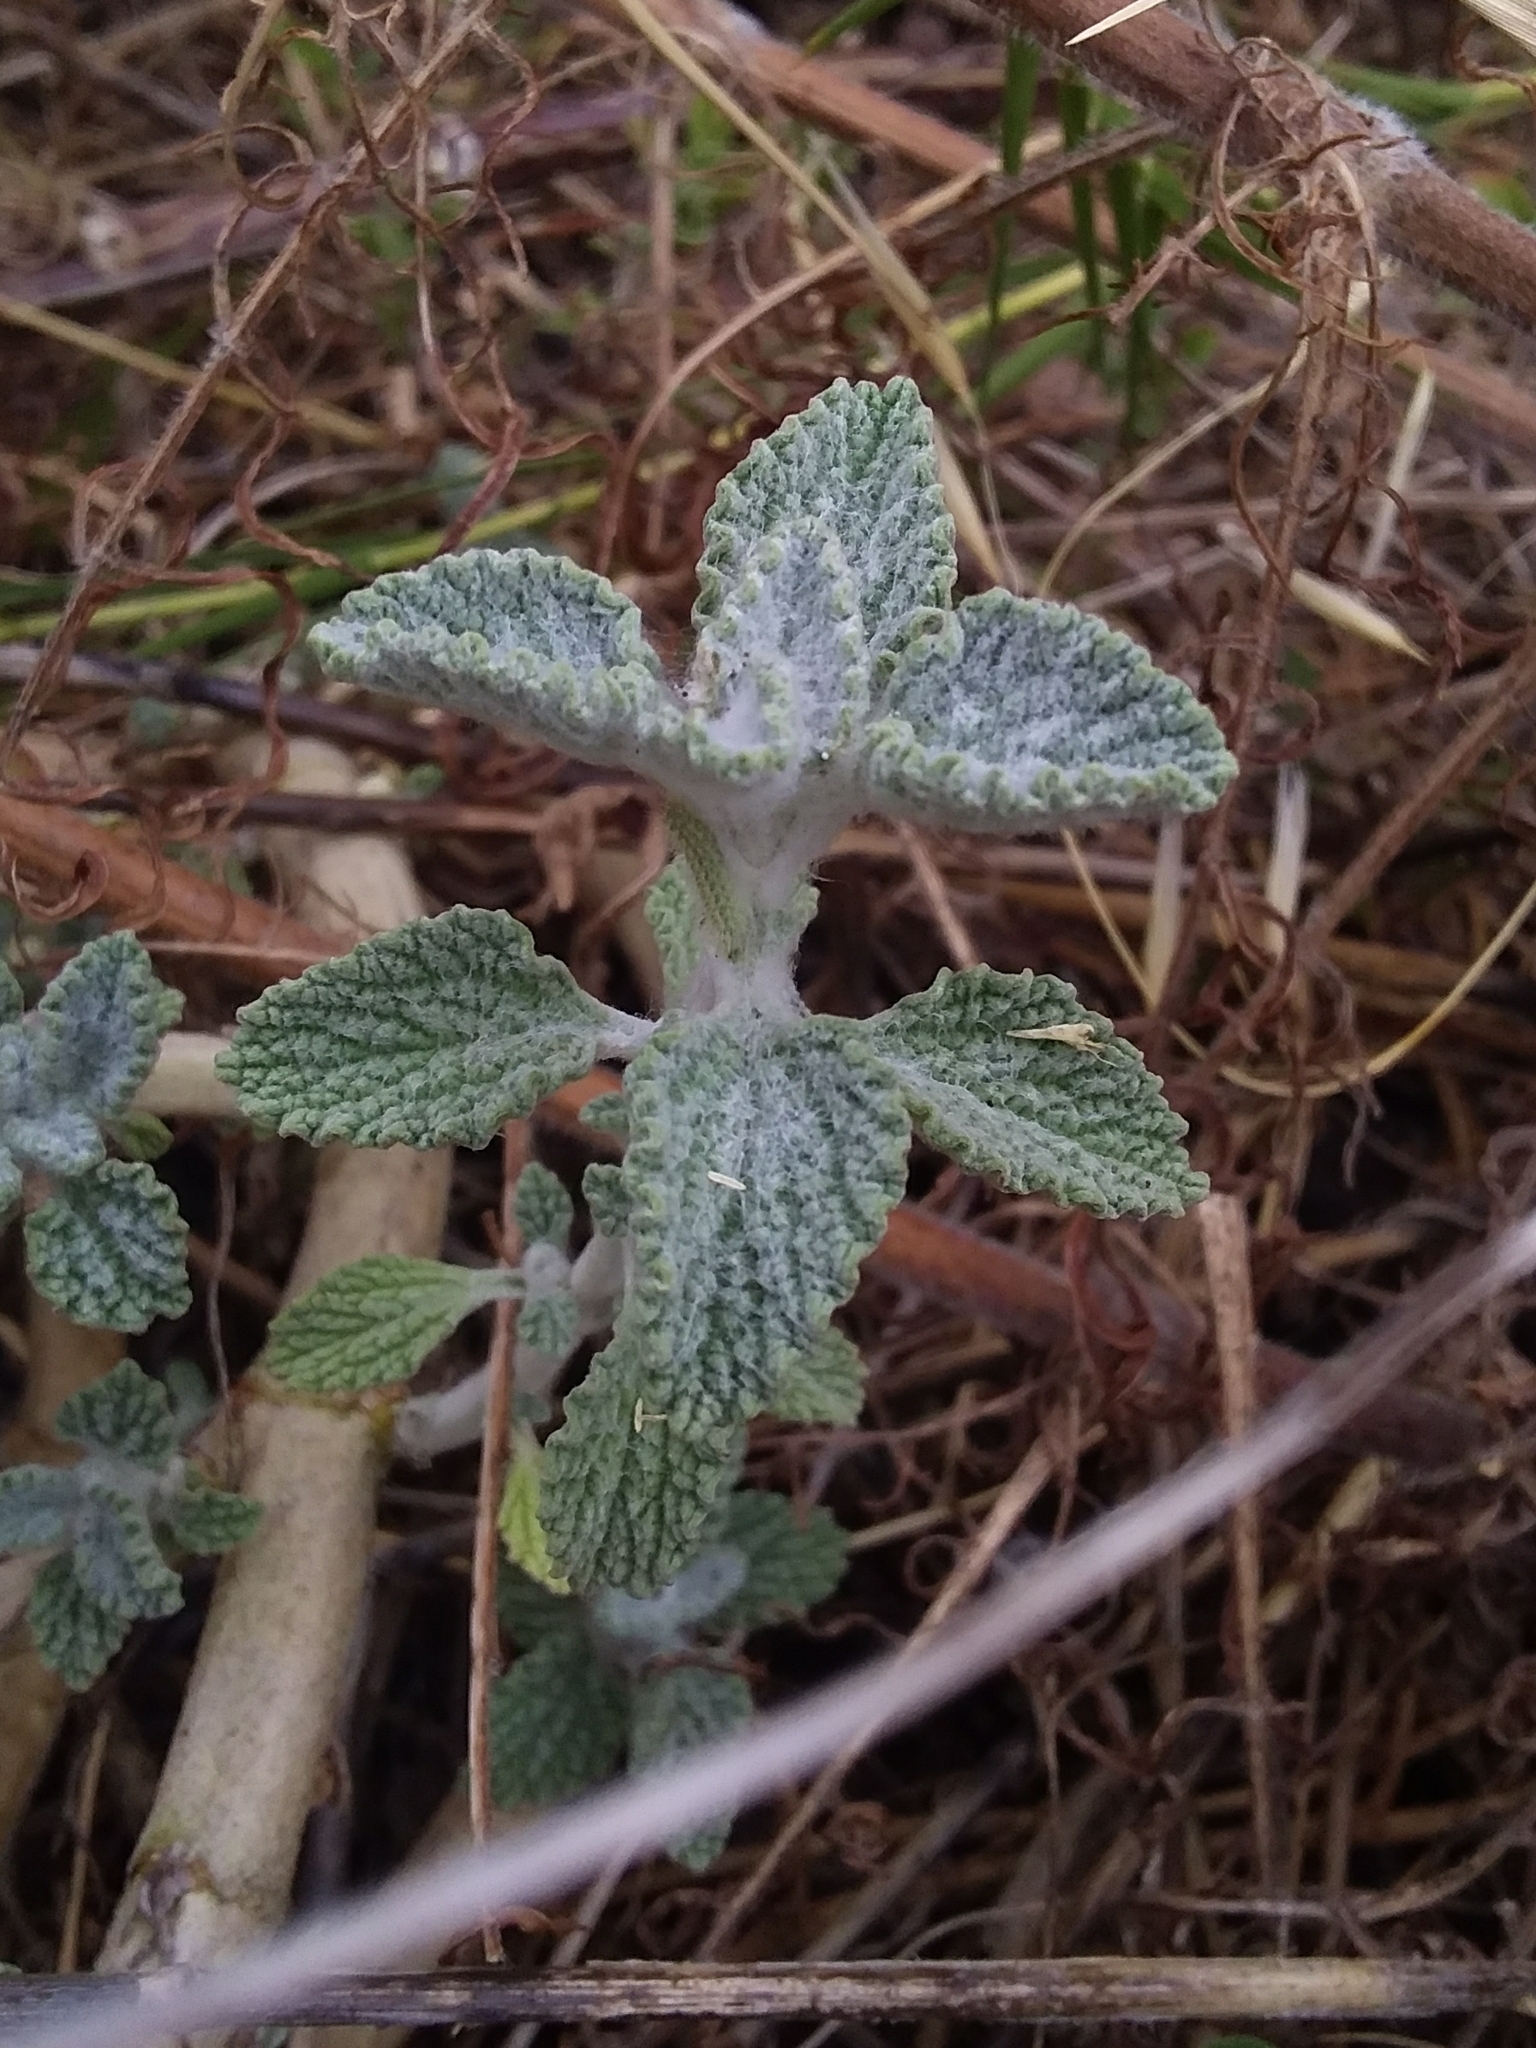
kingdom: Plantae
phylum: Tracheophyta
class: Magnoliopsida
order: Lamiales
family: Lamiaceae
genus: Marrubium
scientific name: Marrubium vulgare
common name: Horehound
